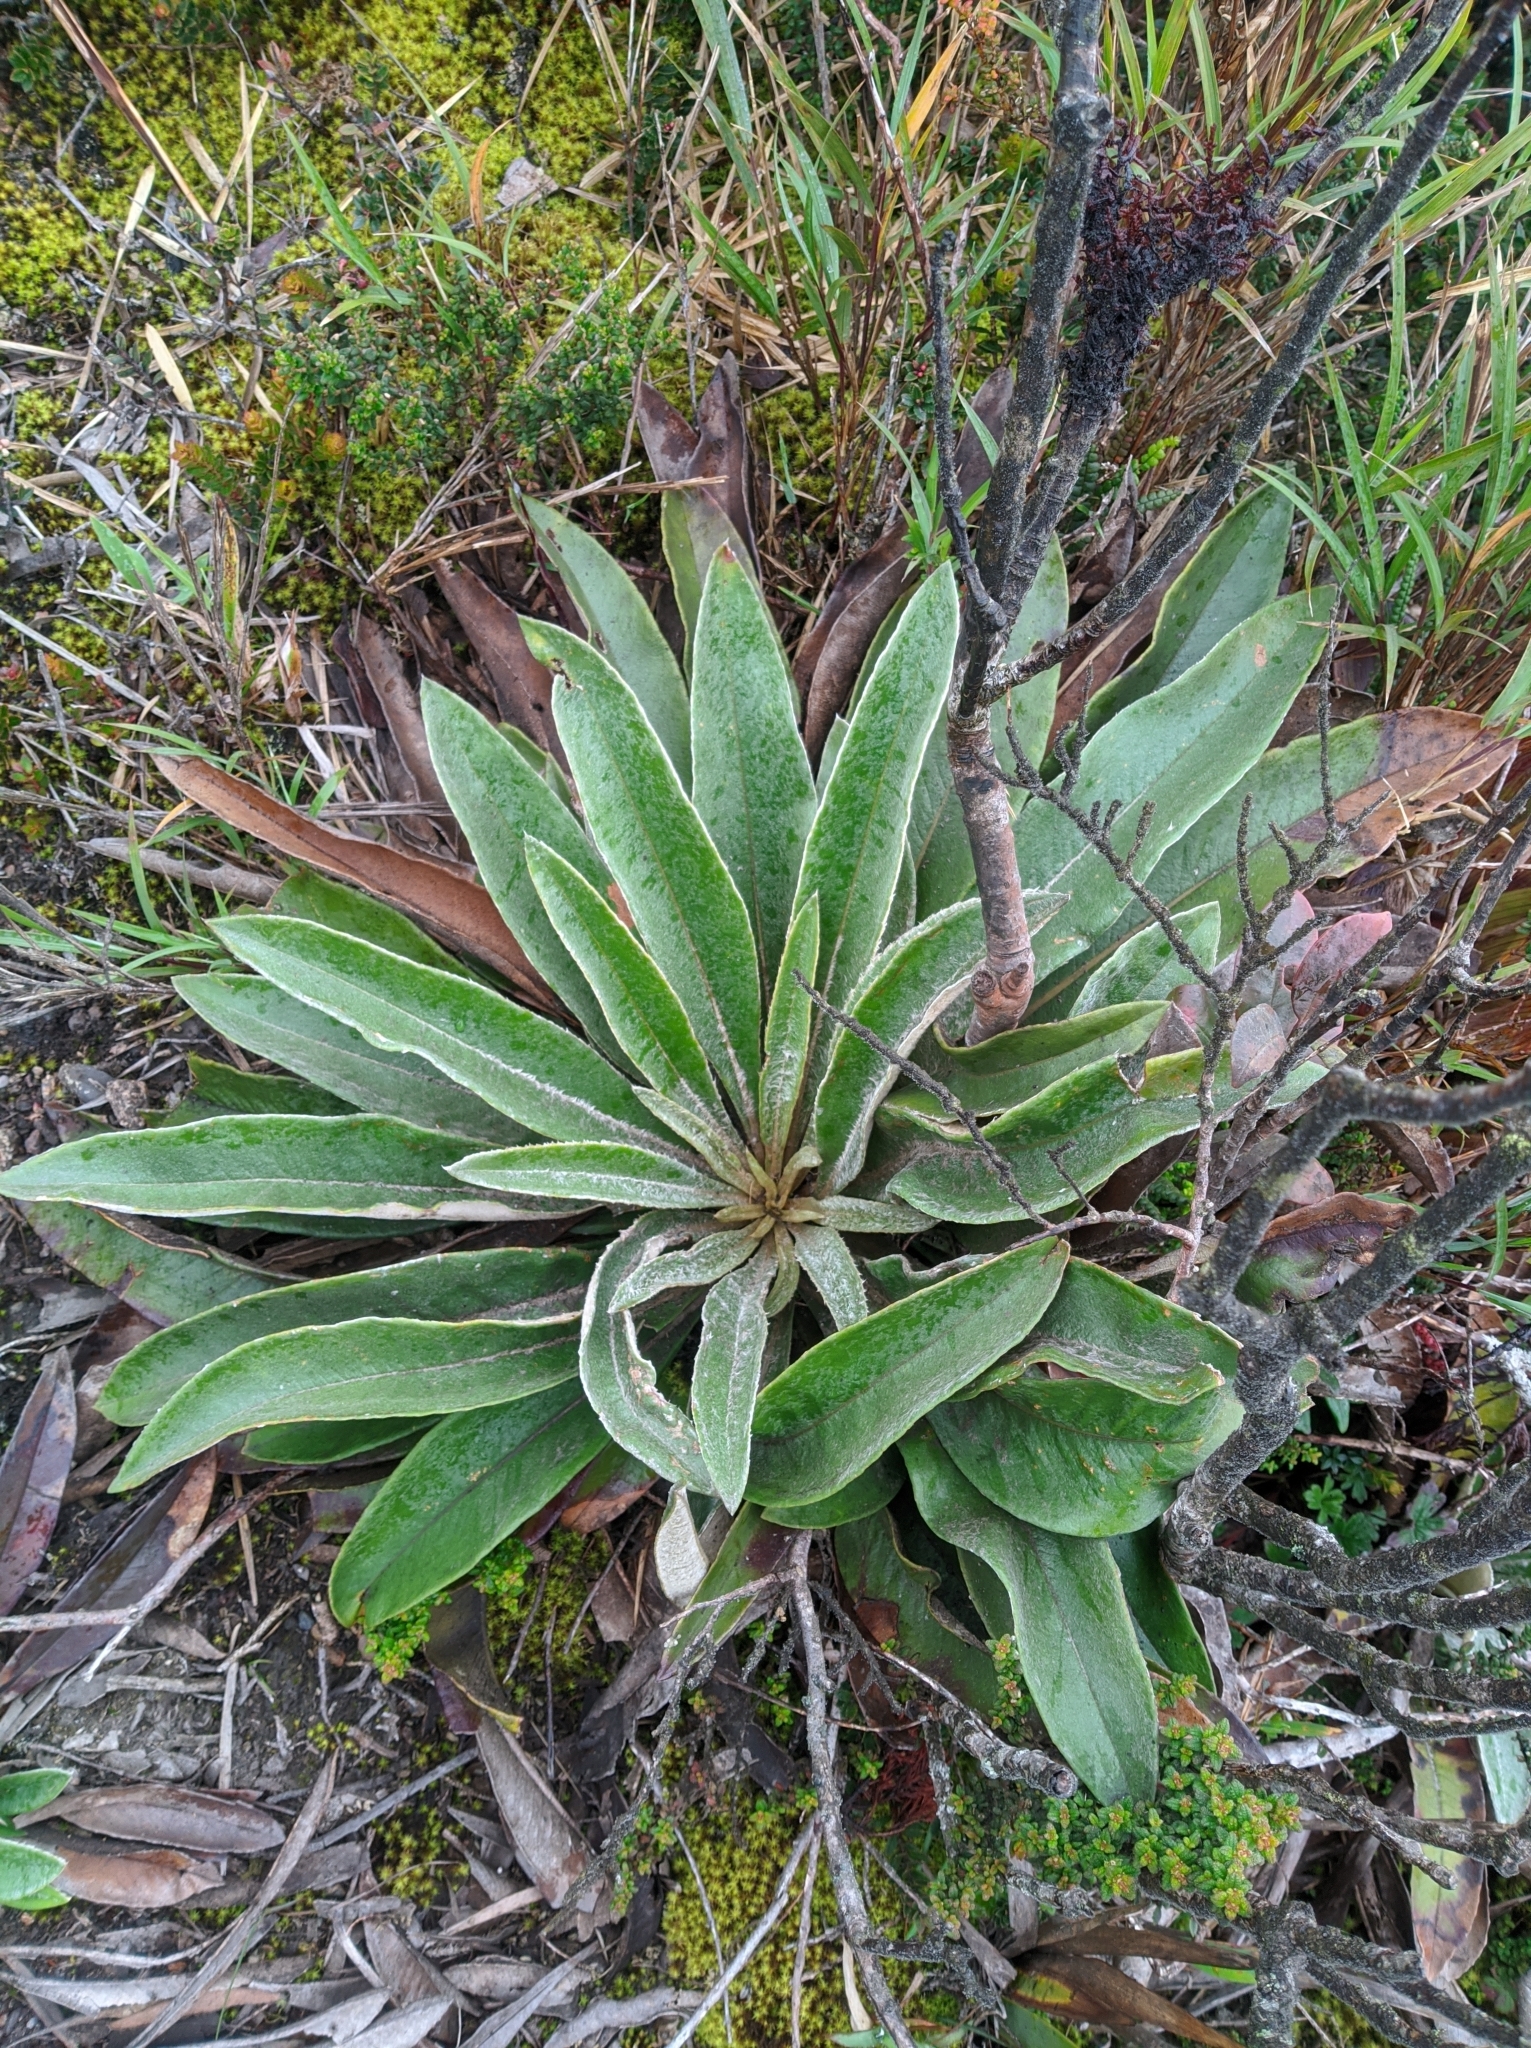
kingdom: Plantae
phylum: Tracheophyta
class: Magnoliopsida
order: Asterales
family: Asteraceae
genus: Espeletia
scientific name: Espeletia bracteosa
